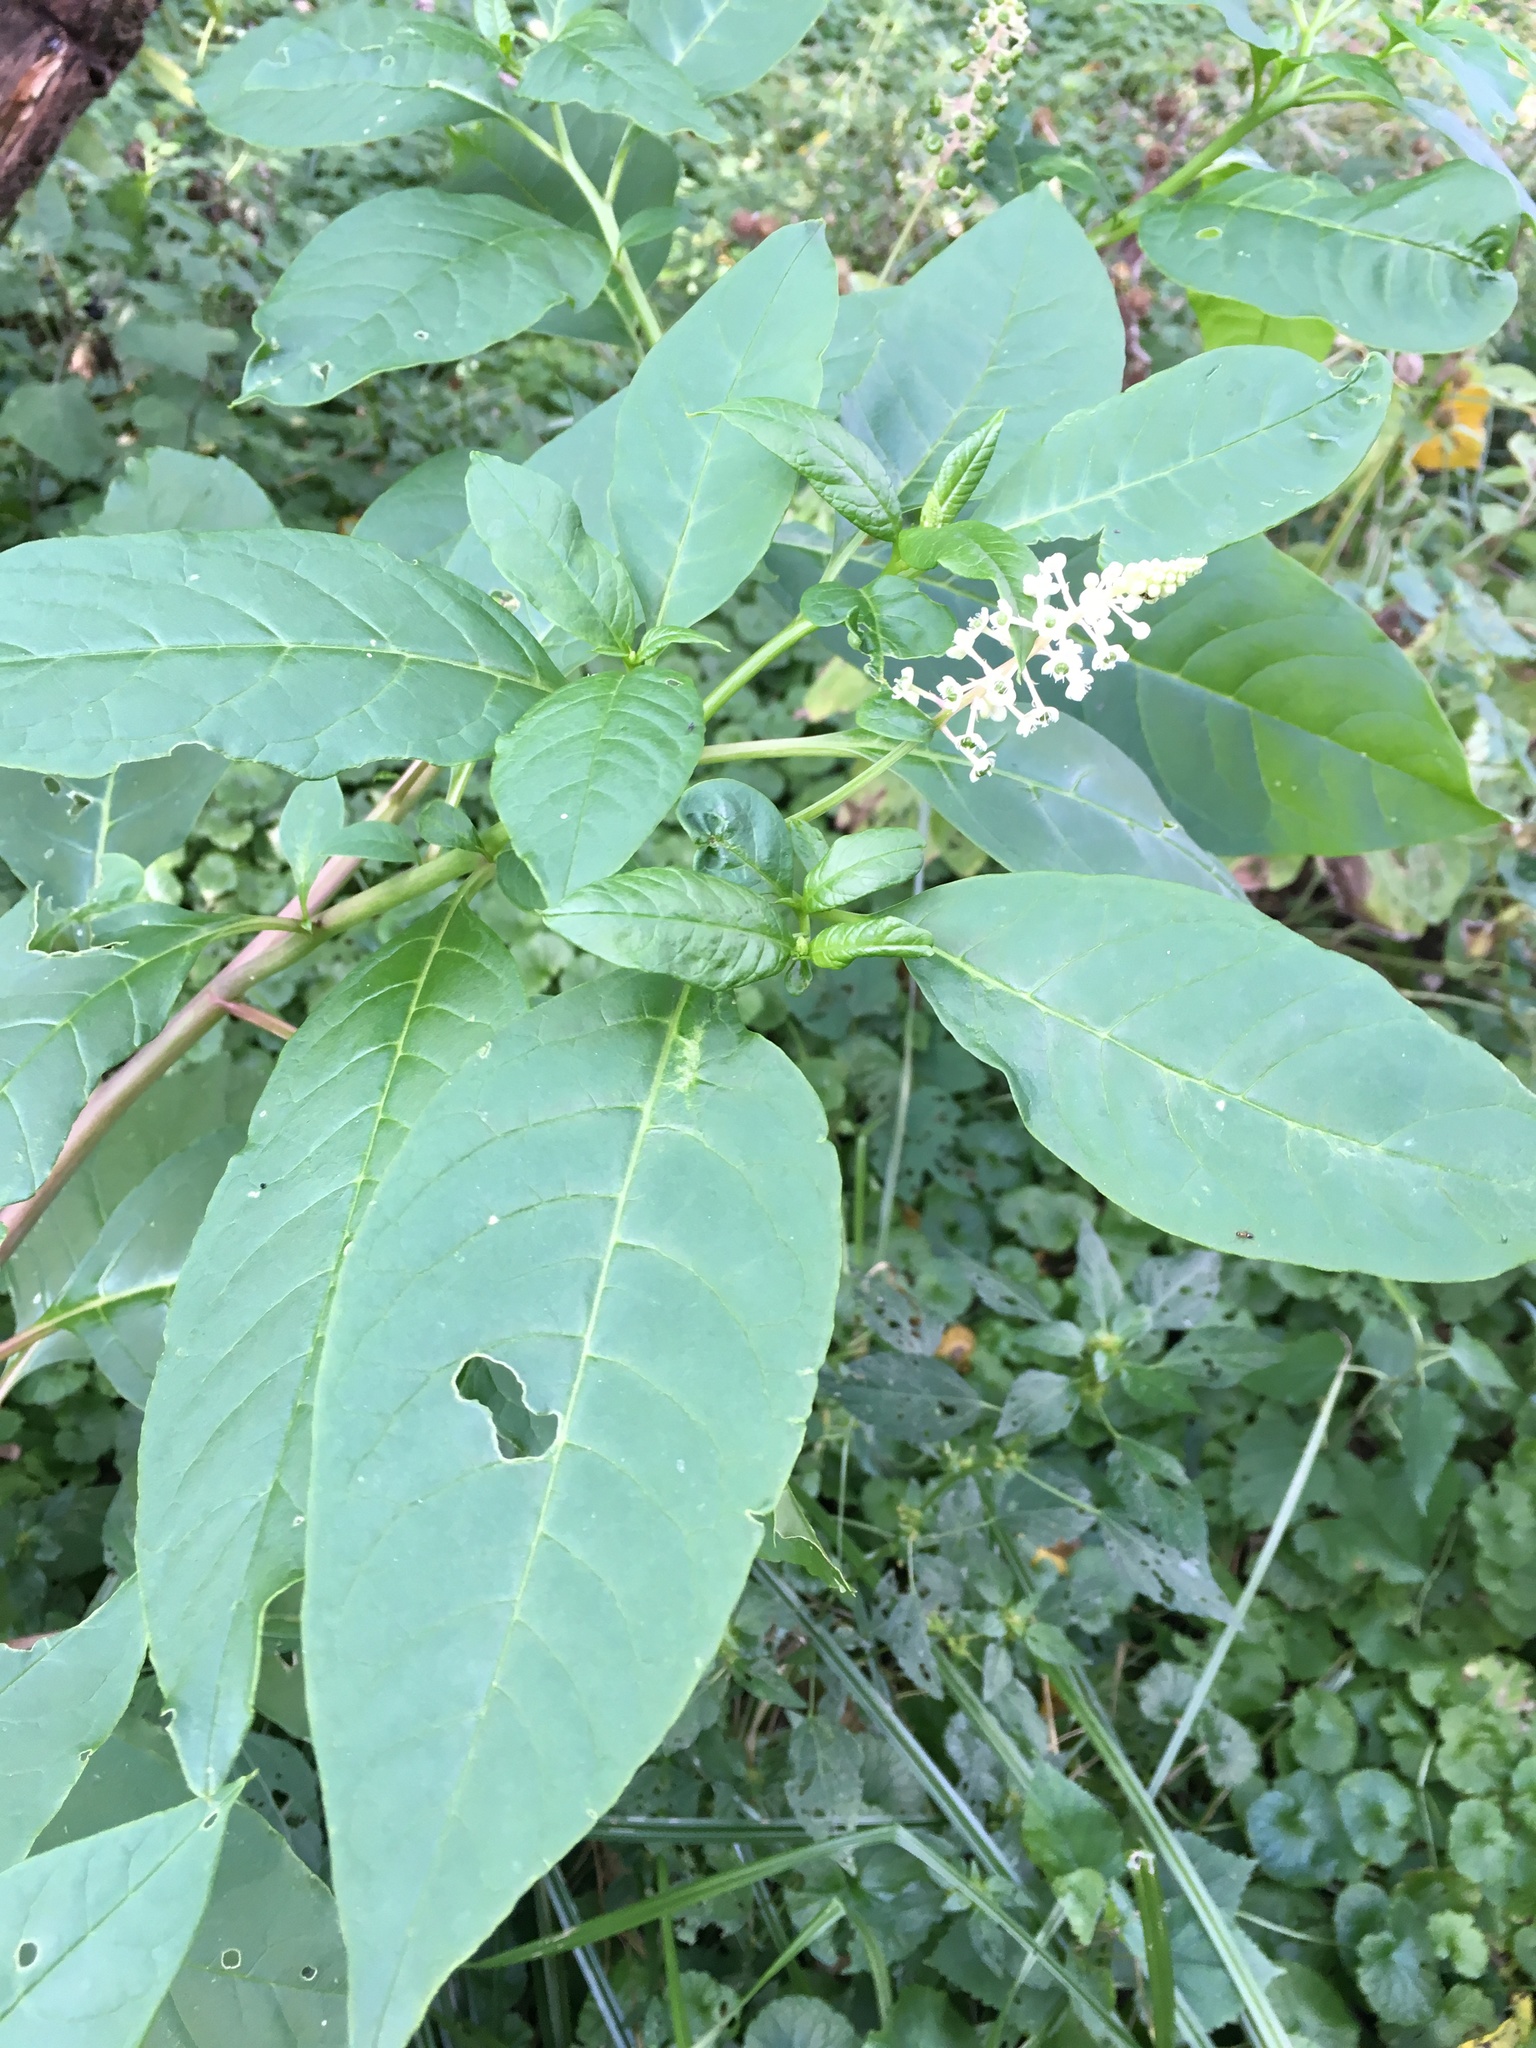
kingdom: Plantae
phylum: Tracheophyta
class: Magnoliopsida
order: Caryophyllales
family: Phytolaccaceae
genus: Phytolacca
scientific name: Phytolacca americana
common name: American pokeweed
